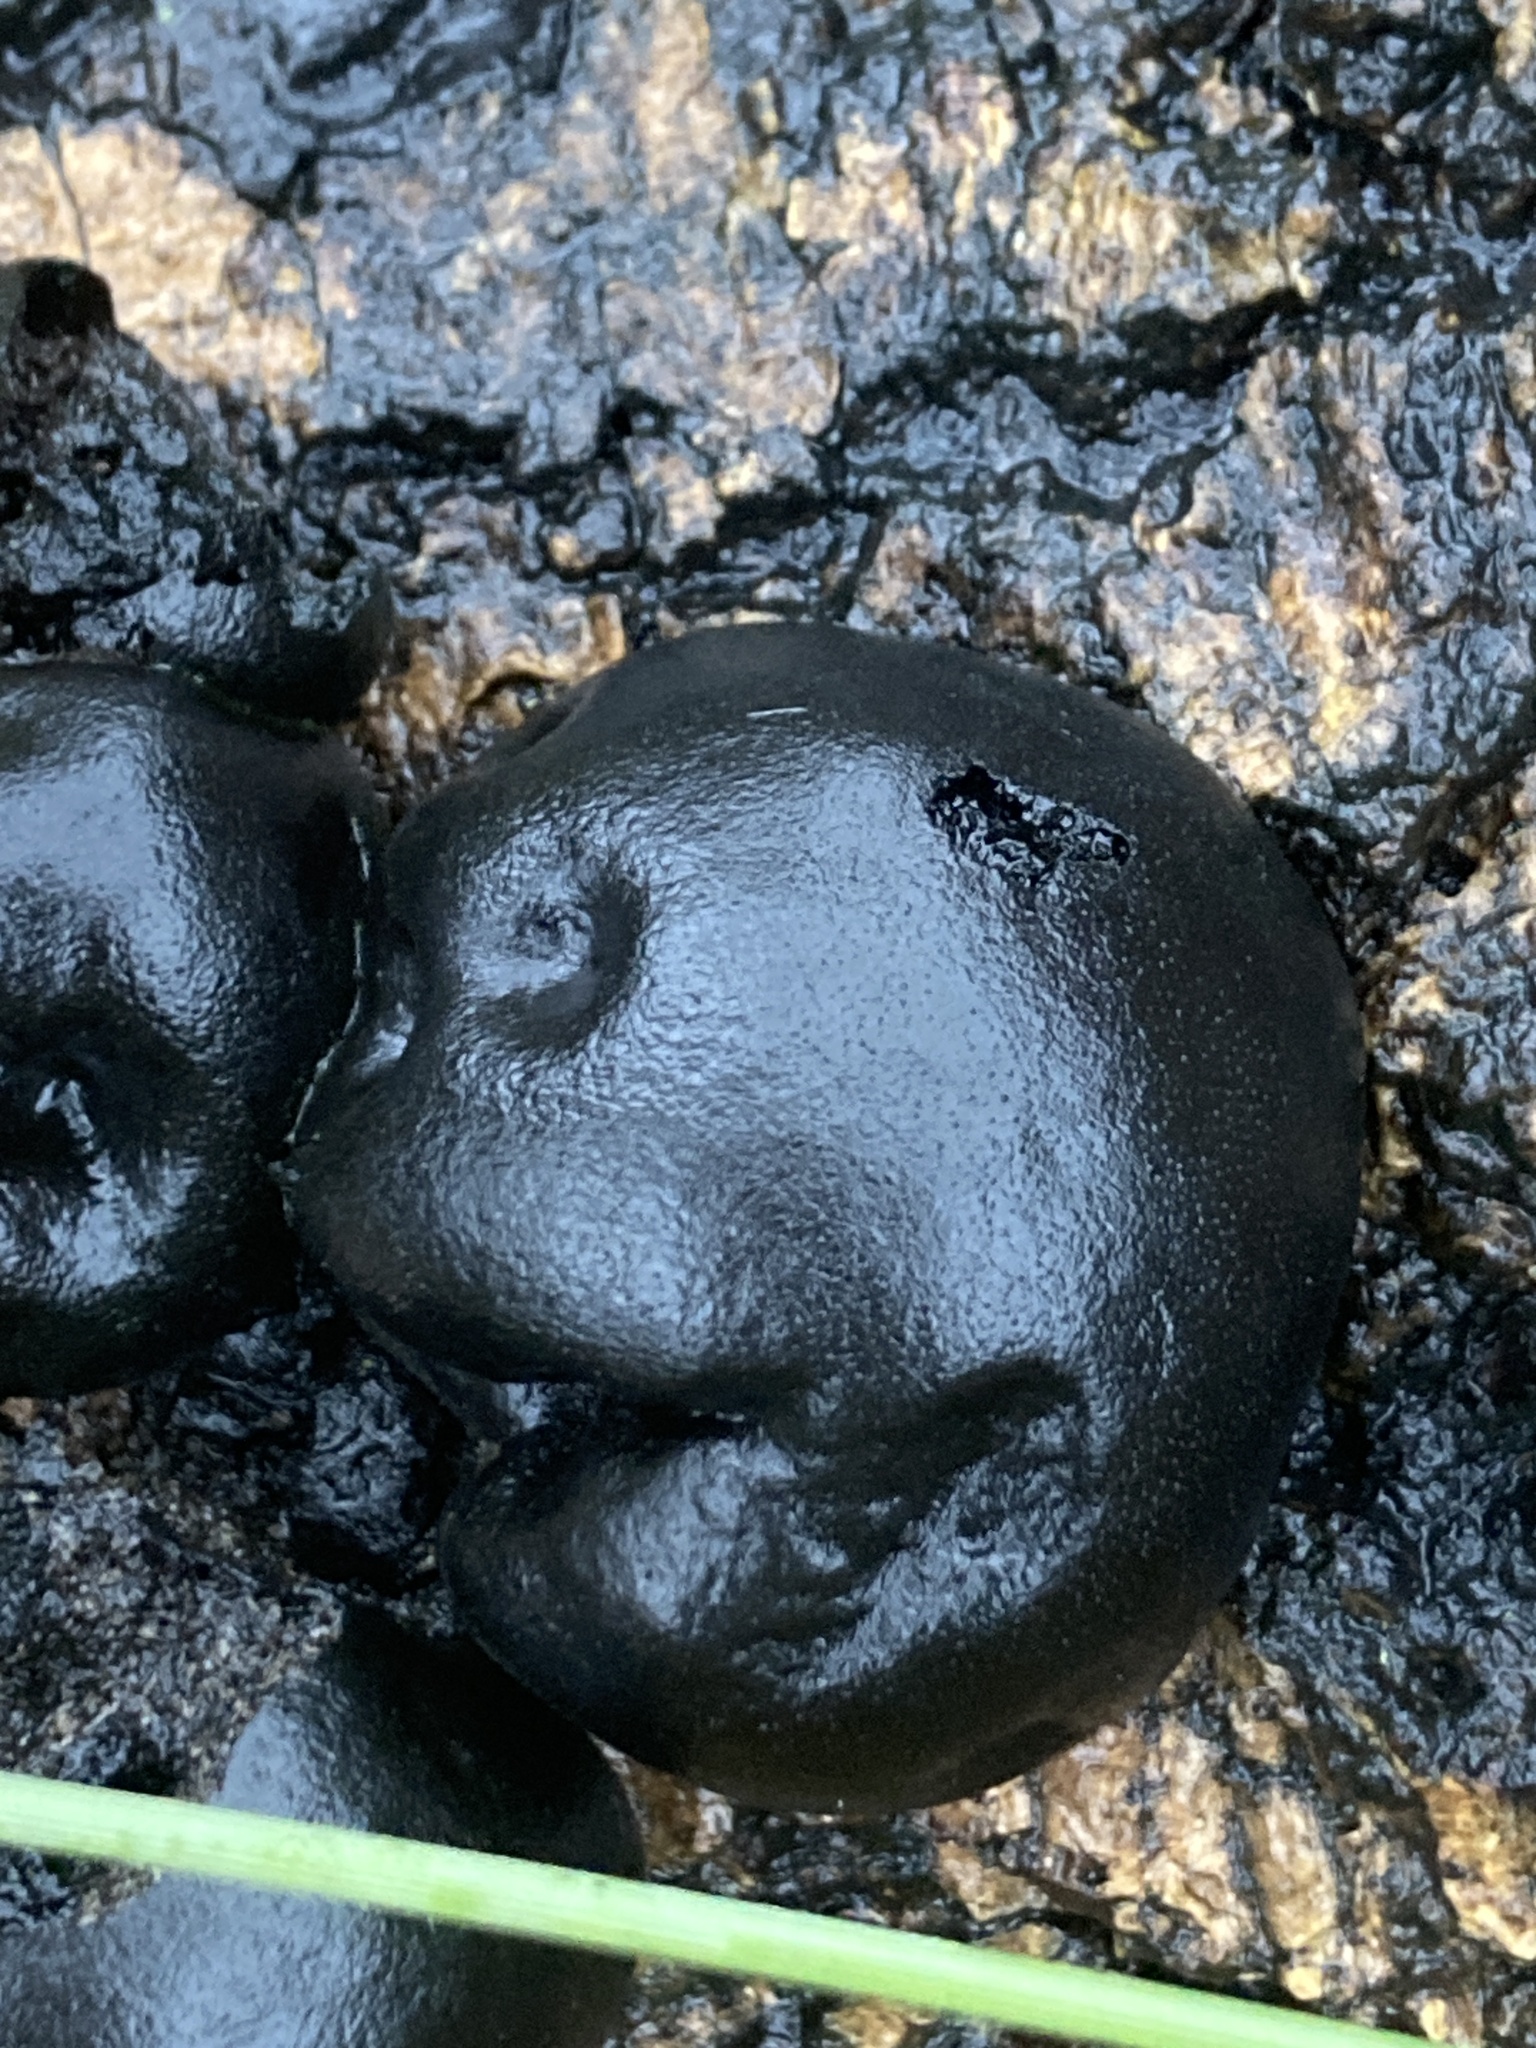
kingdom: Fungi
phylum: Ascomycota
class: Sordariomycetes
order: Xylariales
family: Hypoxylaceae
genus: Daldinia
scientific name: Daldinia concentrica
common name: Cramp balls
